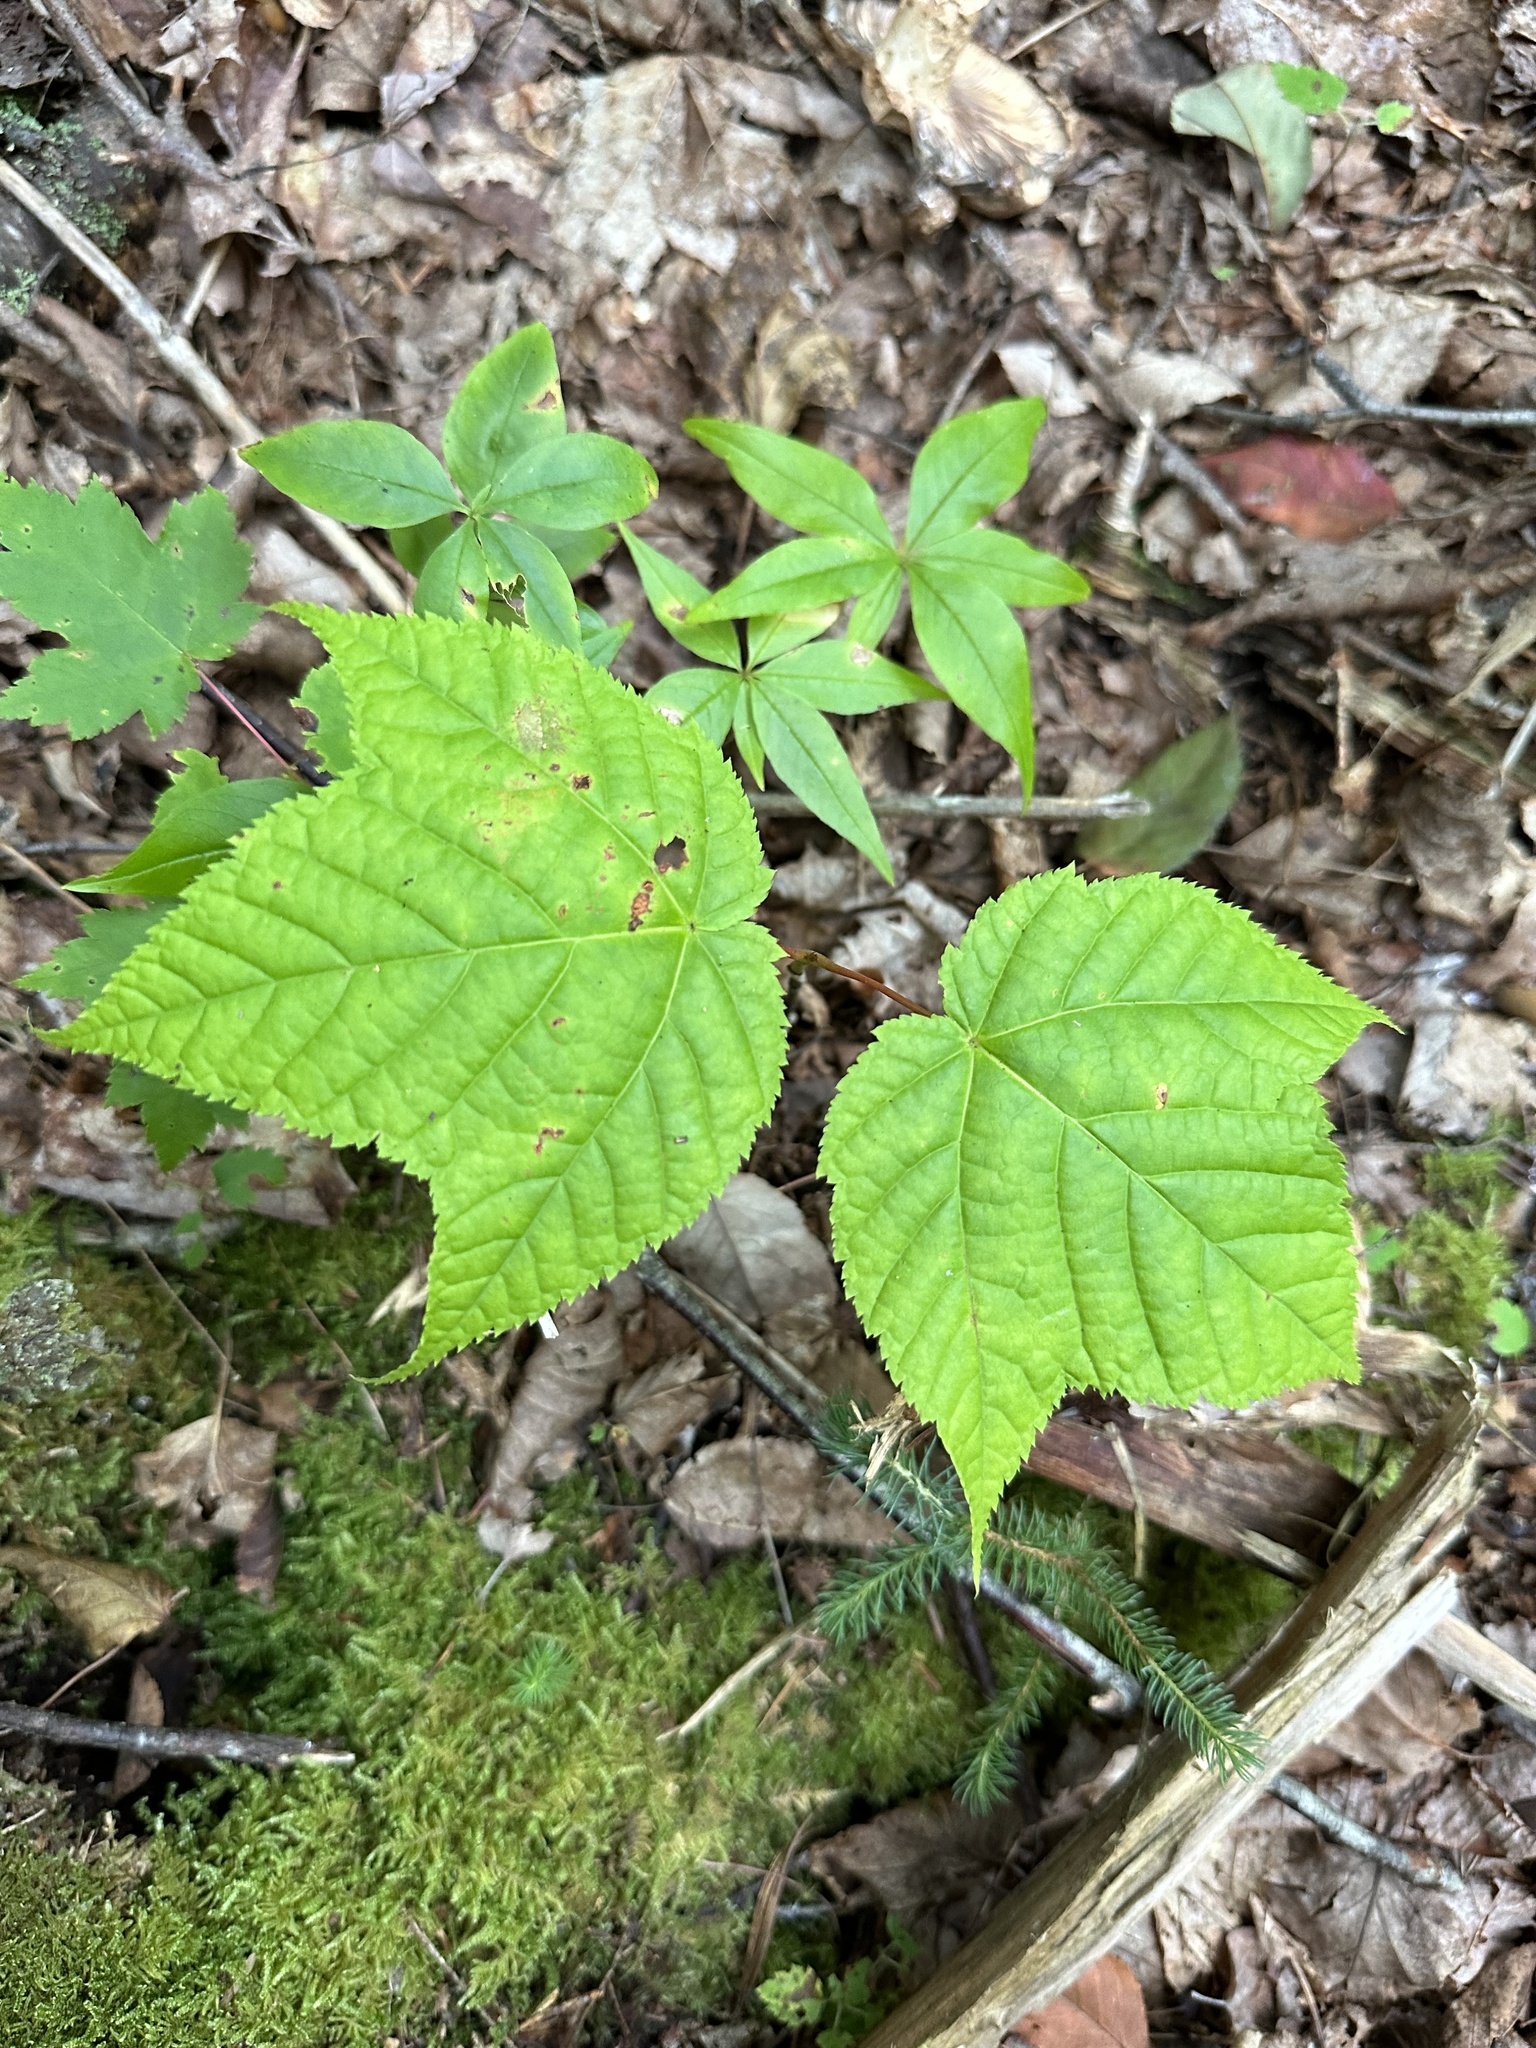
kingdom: Plantae
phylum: Tracheophyta
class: Magnoliopsida
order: Sapindales
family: Sapindaceae
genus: Acer
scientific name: Acer pensylvanicum
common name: Moosewood
